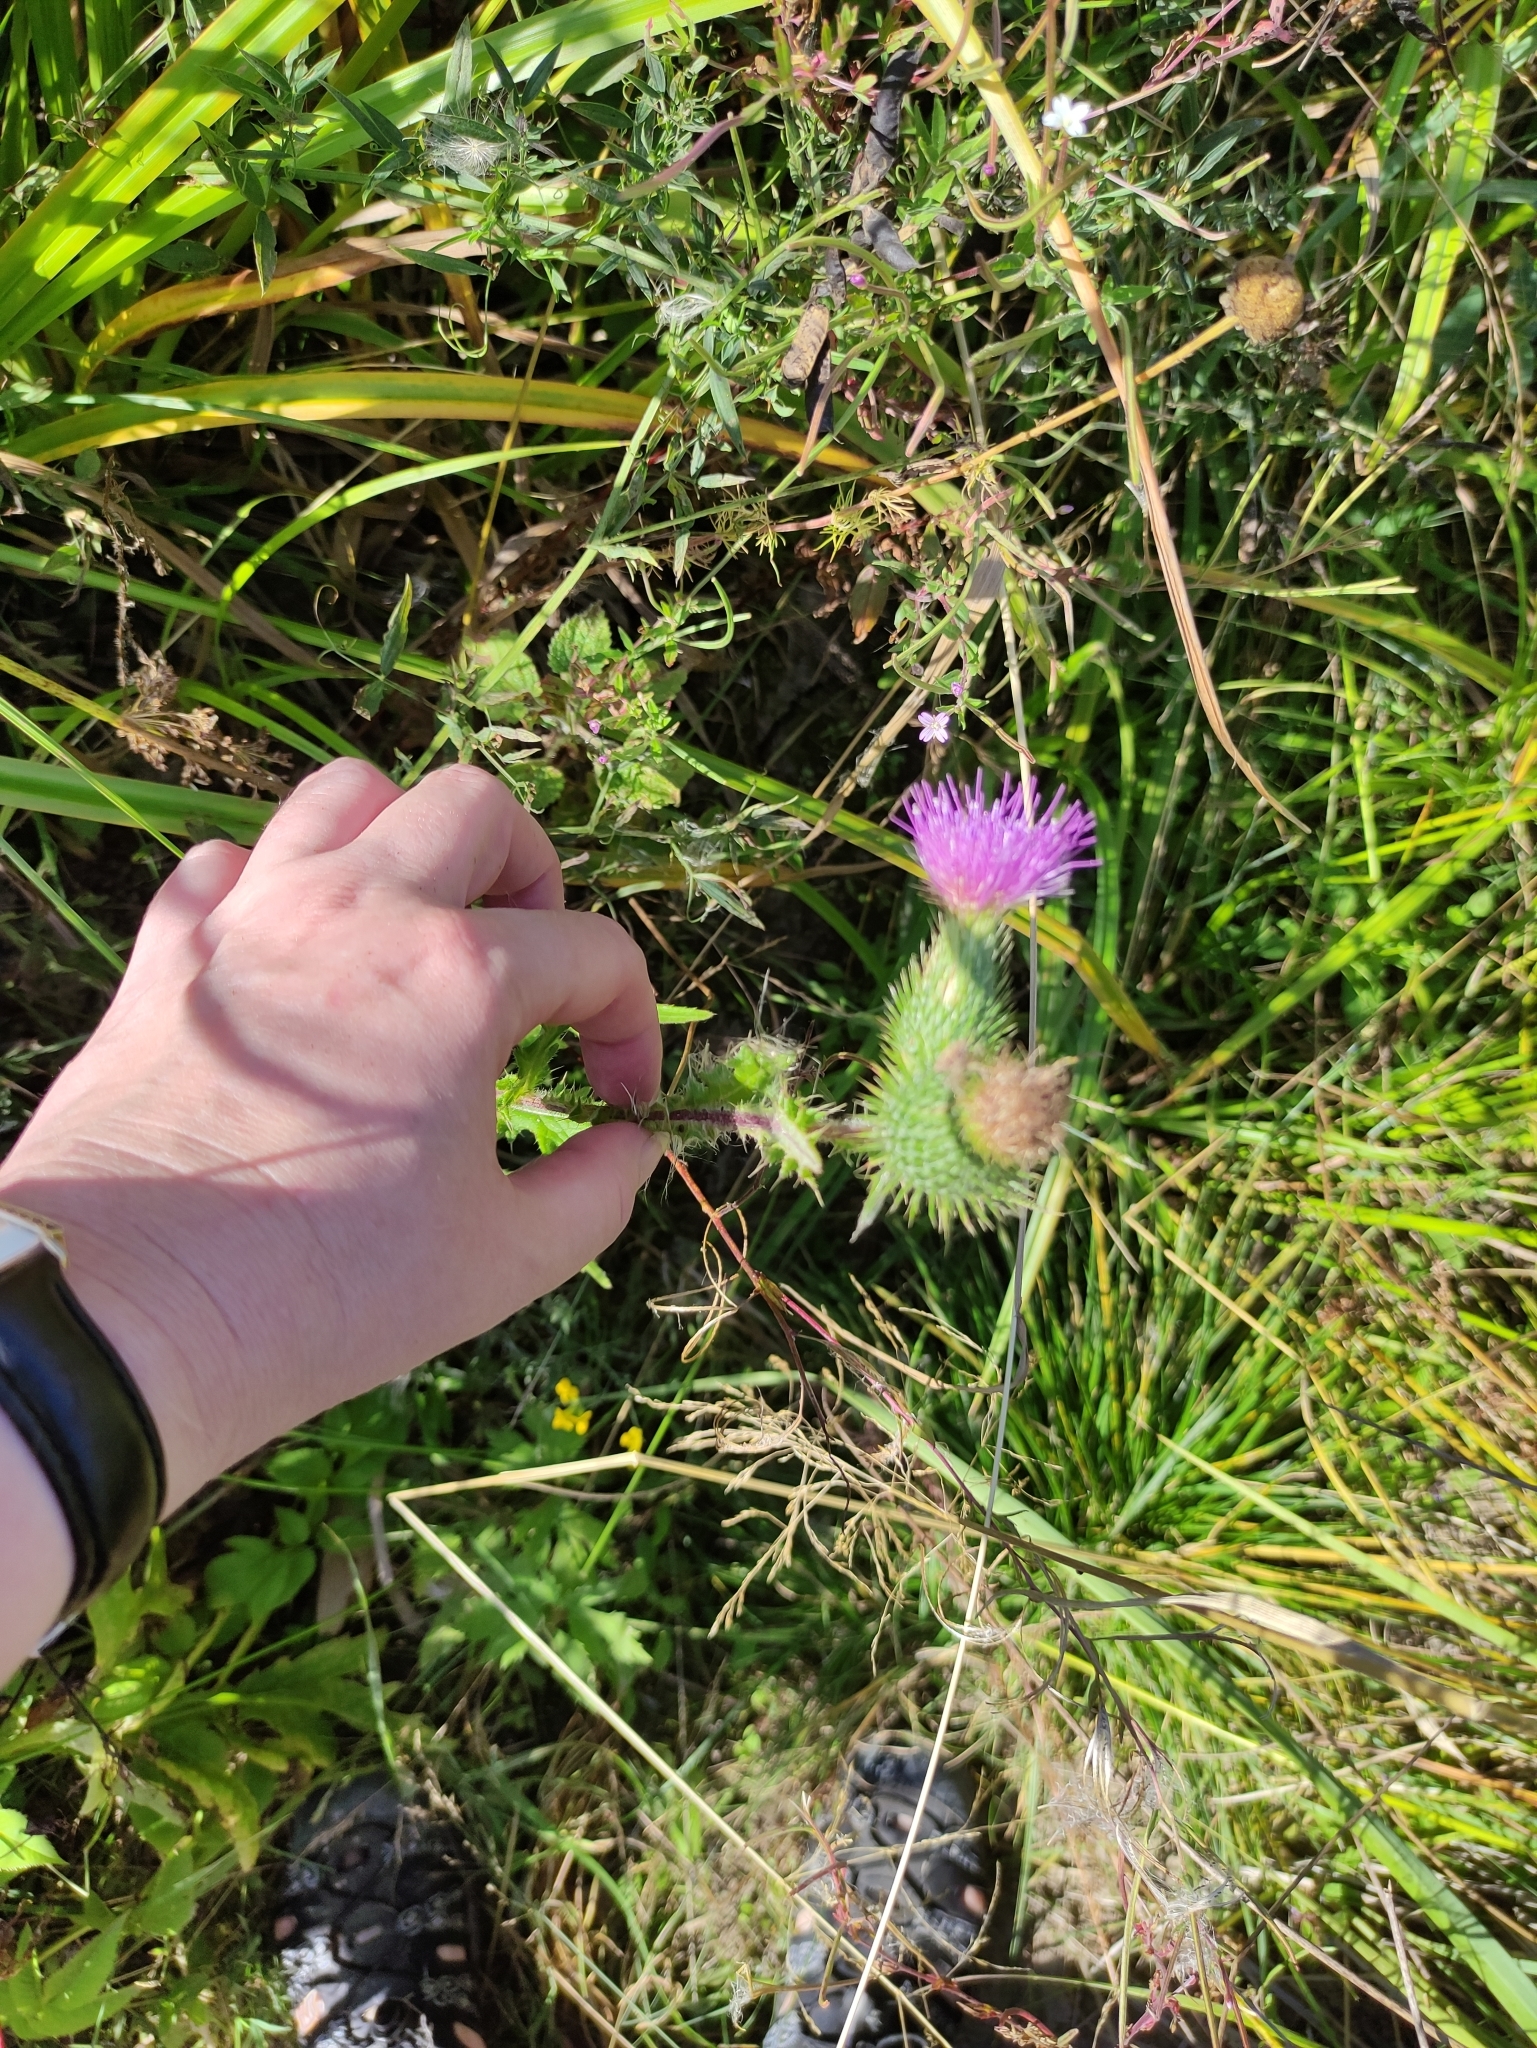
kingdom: Plantae
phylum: Tracheophyta
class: Magnoliopsida
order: Asterales
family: Asteraceae
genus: Cirsium
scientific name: Cirsium vulgare
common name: Bull thistle
